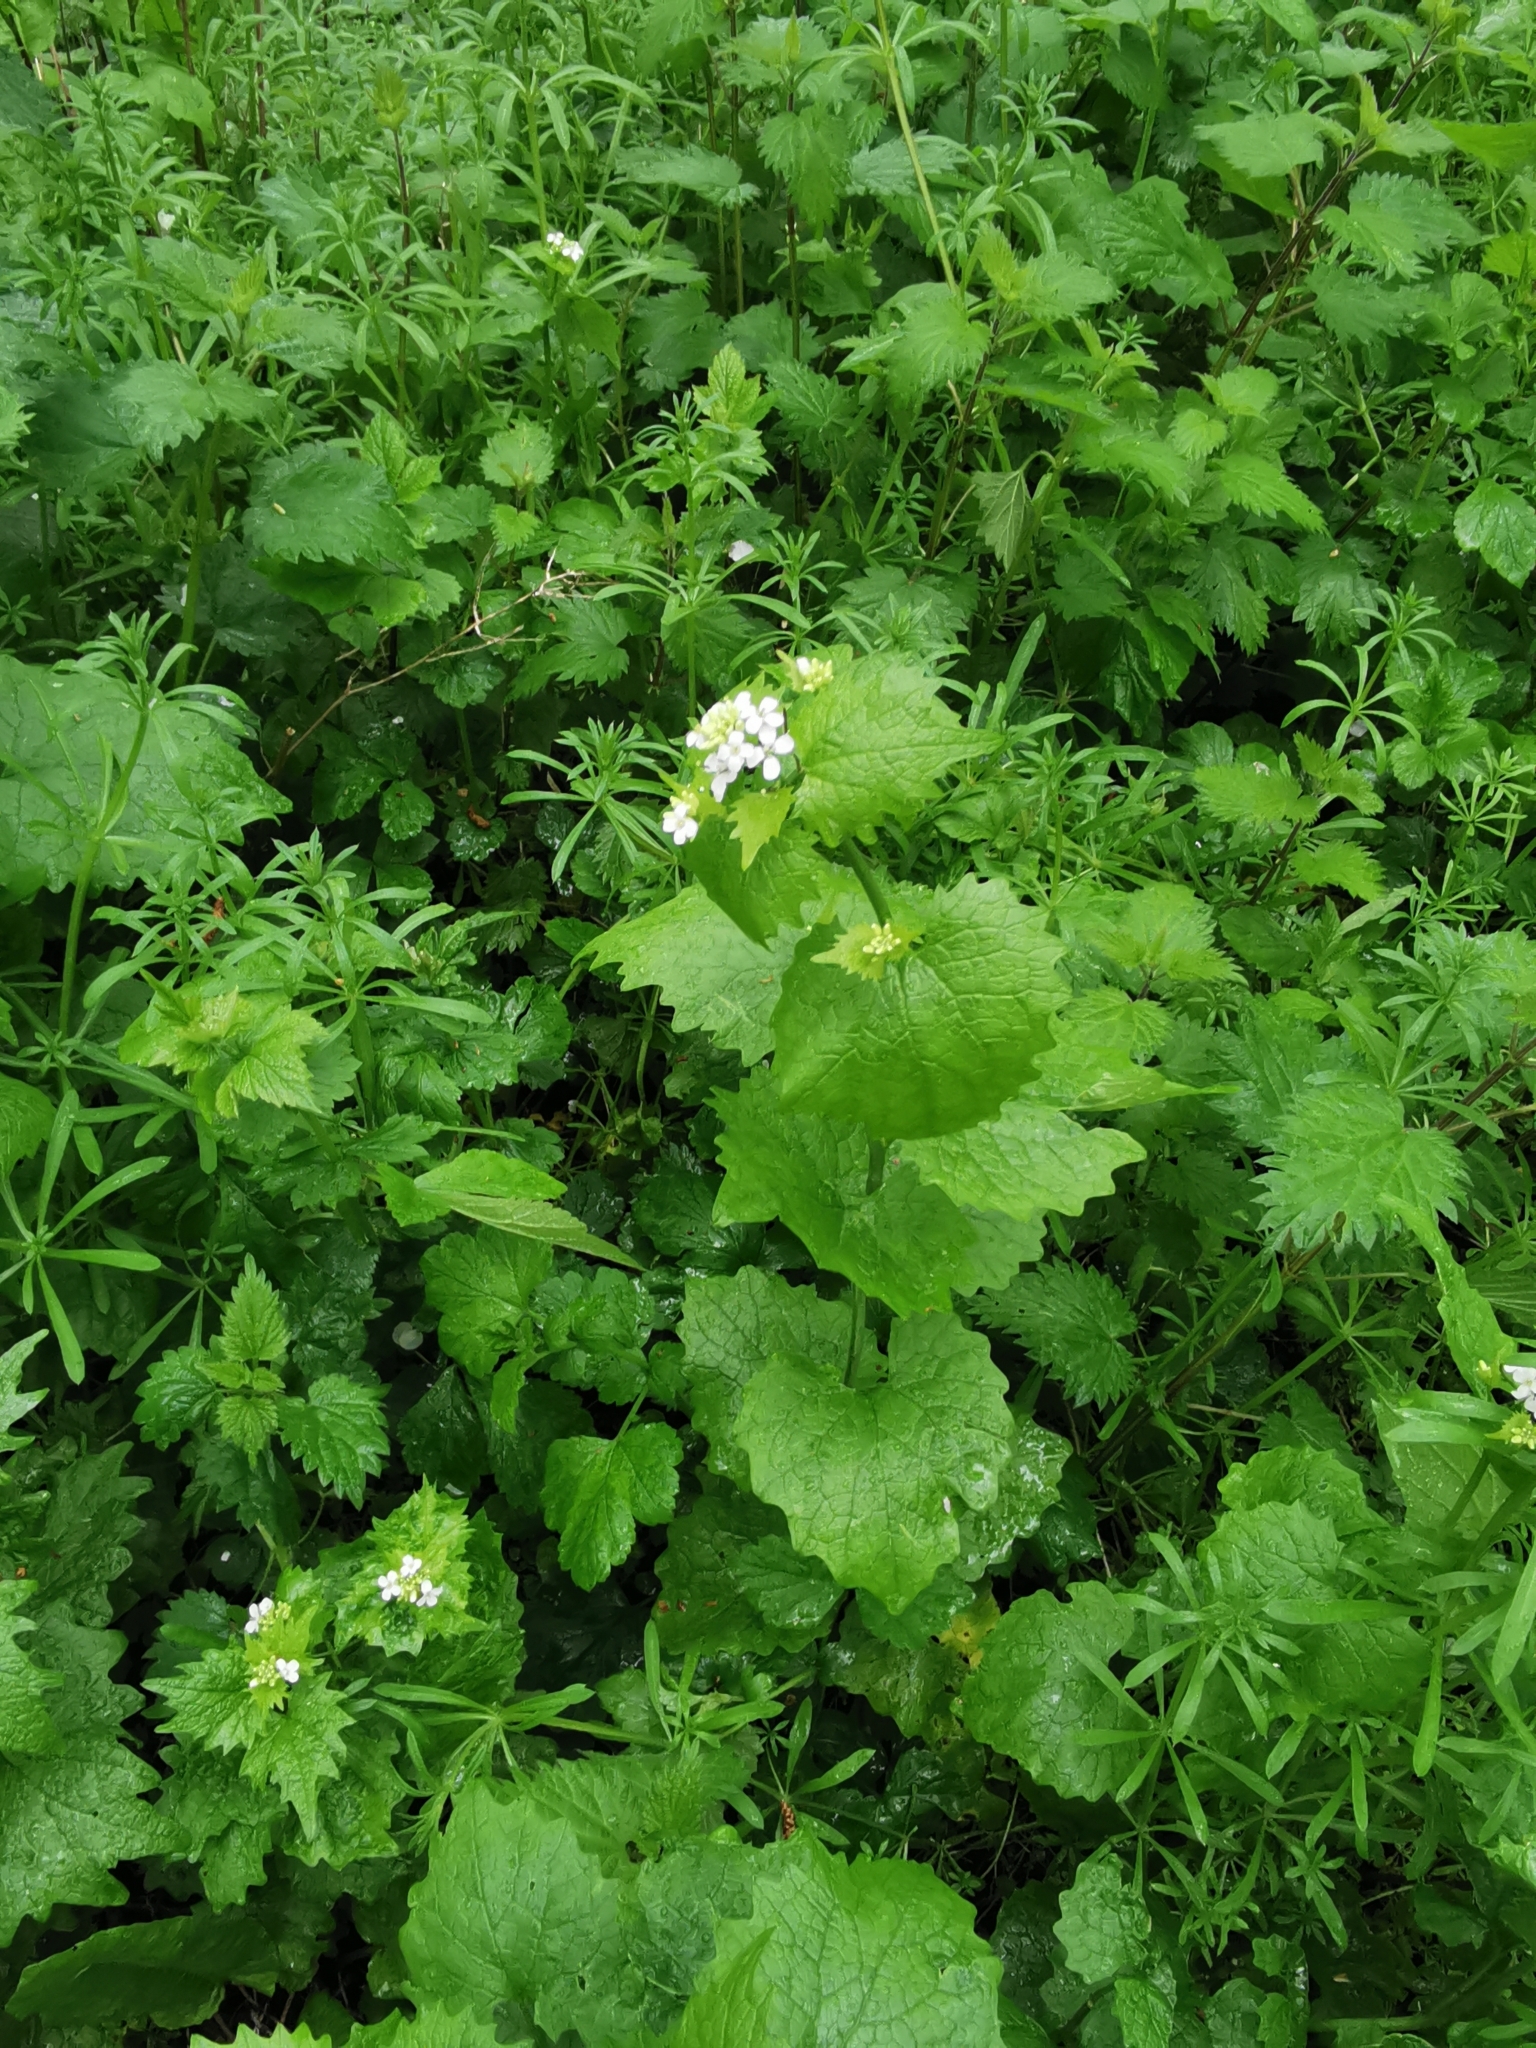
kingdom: Plantae
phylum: Tracheophyta
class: Magnoliopsida
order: Brassicales
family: Brassicaceae
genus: Alliaria
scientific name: Alliaria petiolata
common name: Garlic mustard
